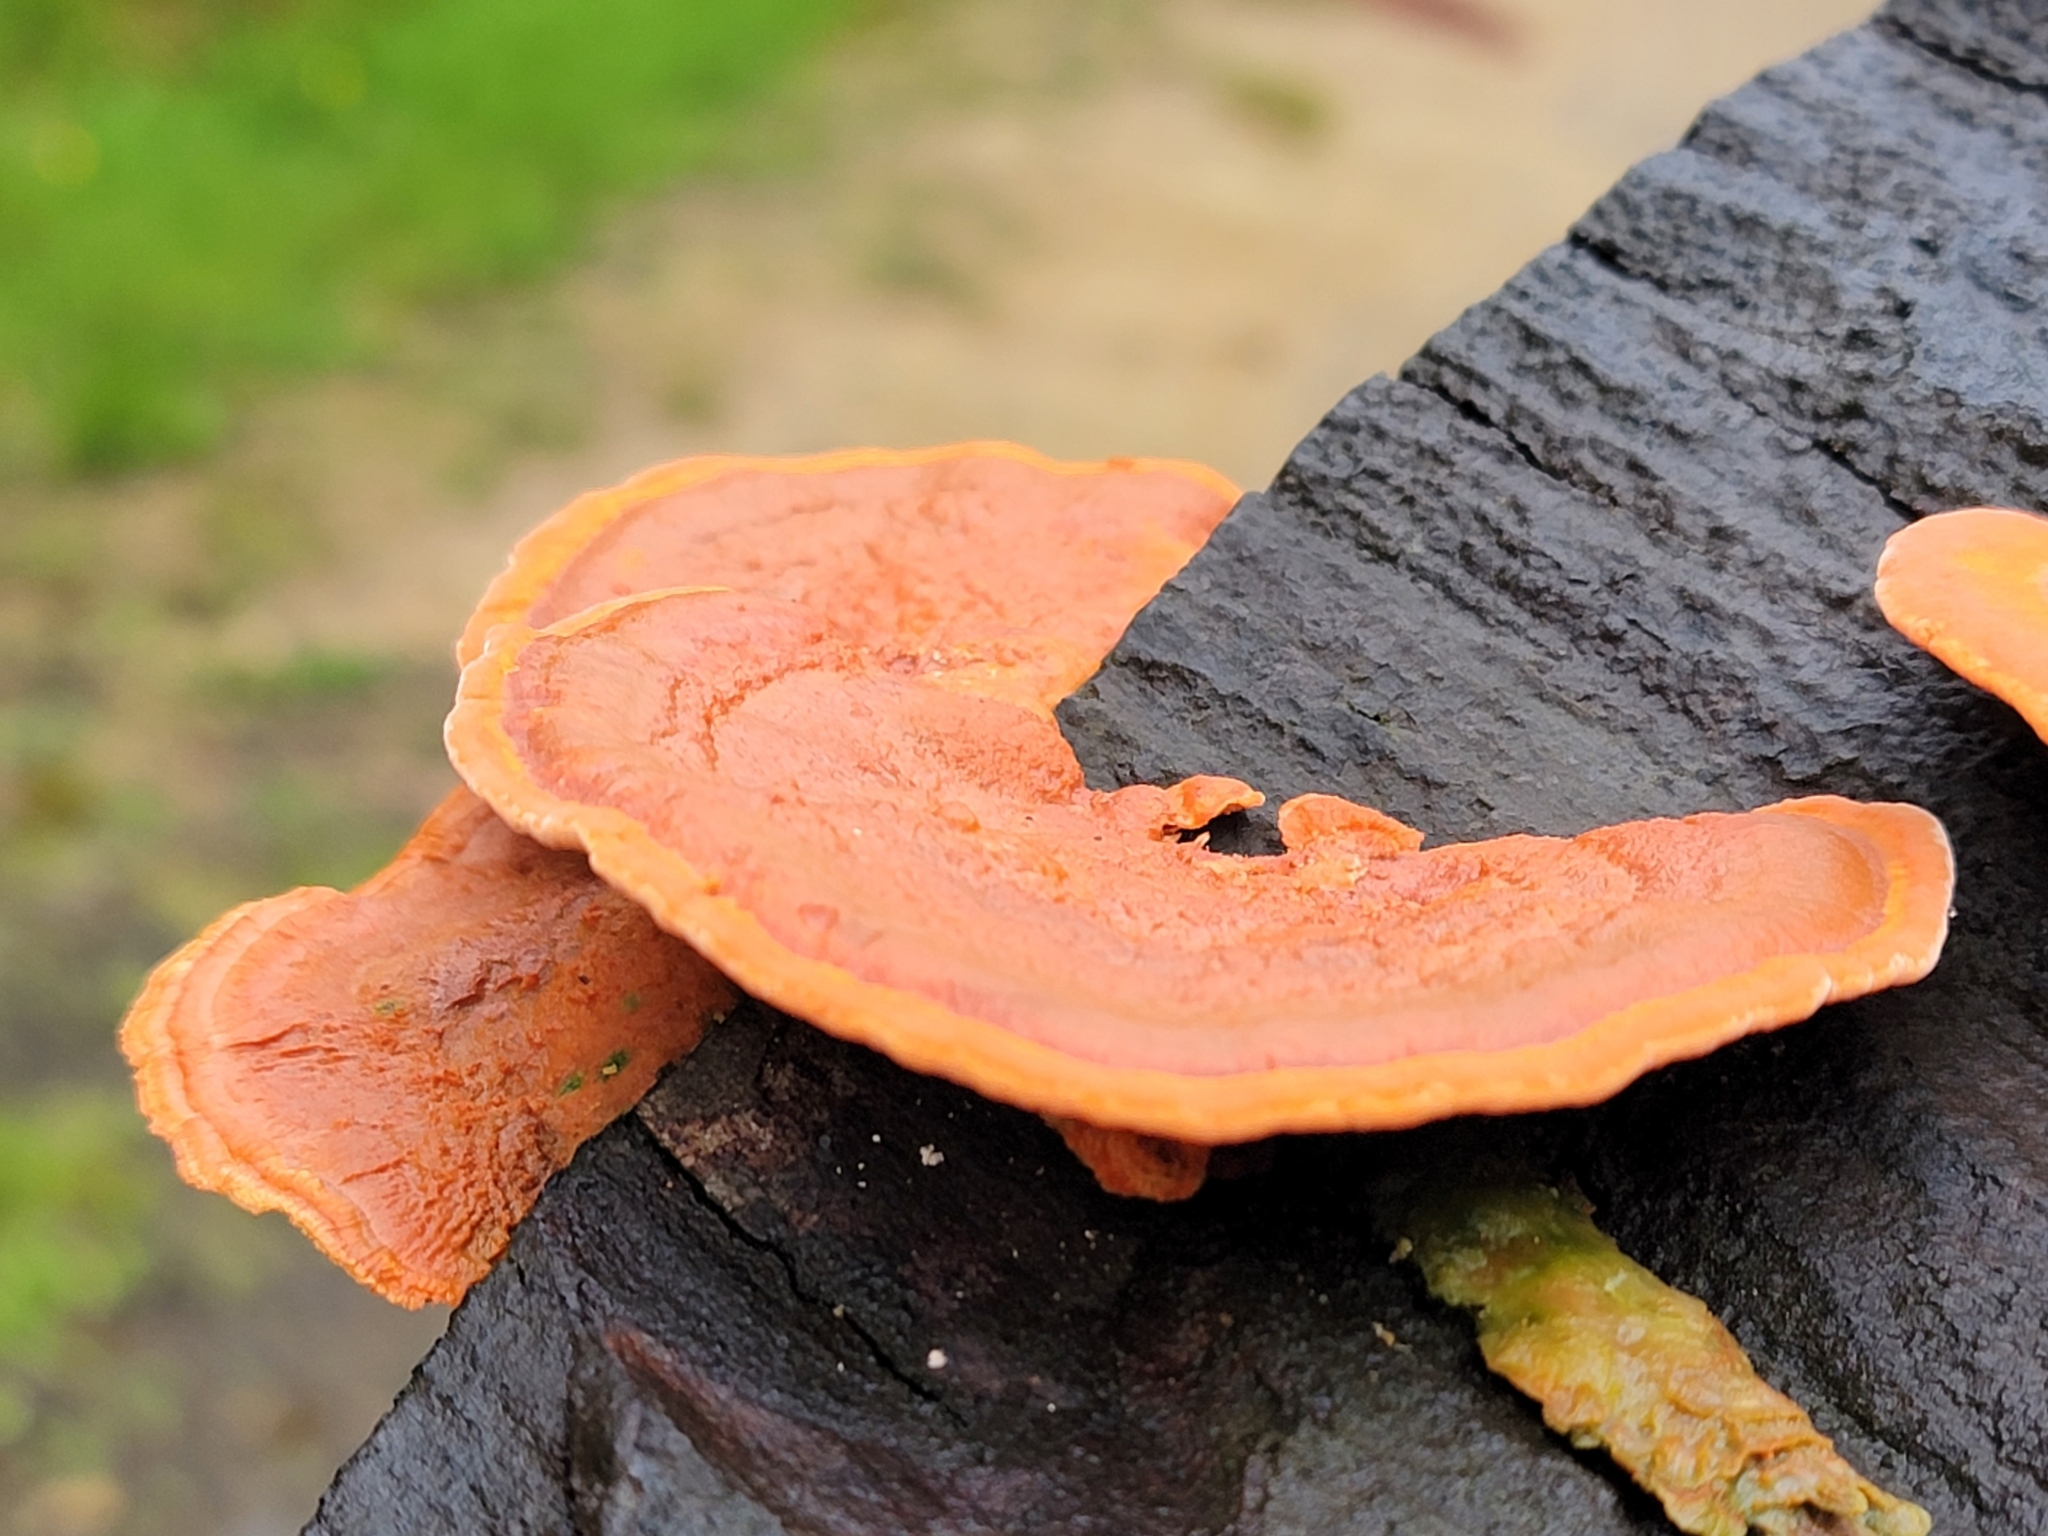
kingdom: Fungi
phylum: Basidiomycota
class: Agaricomycetes
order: Polyporales
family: Polyporaceae
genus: Trametes
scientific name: Trametes coccinea
